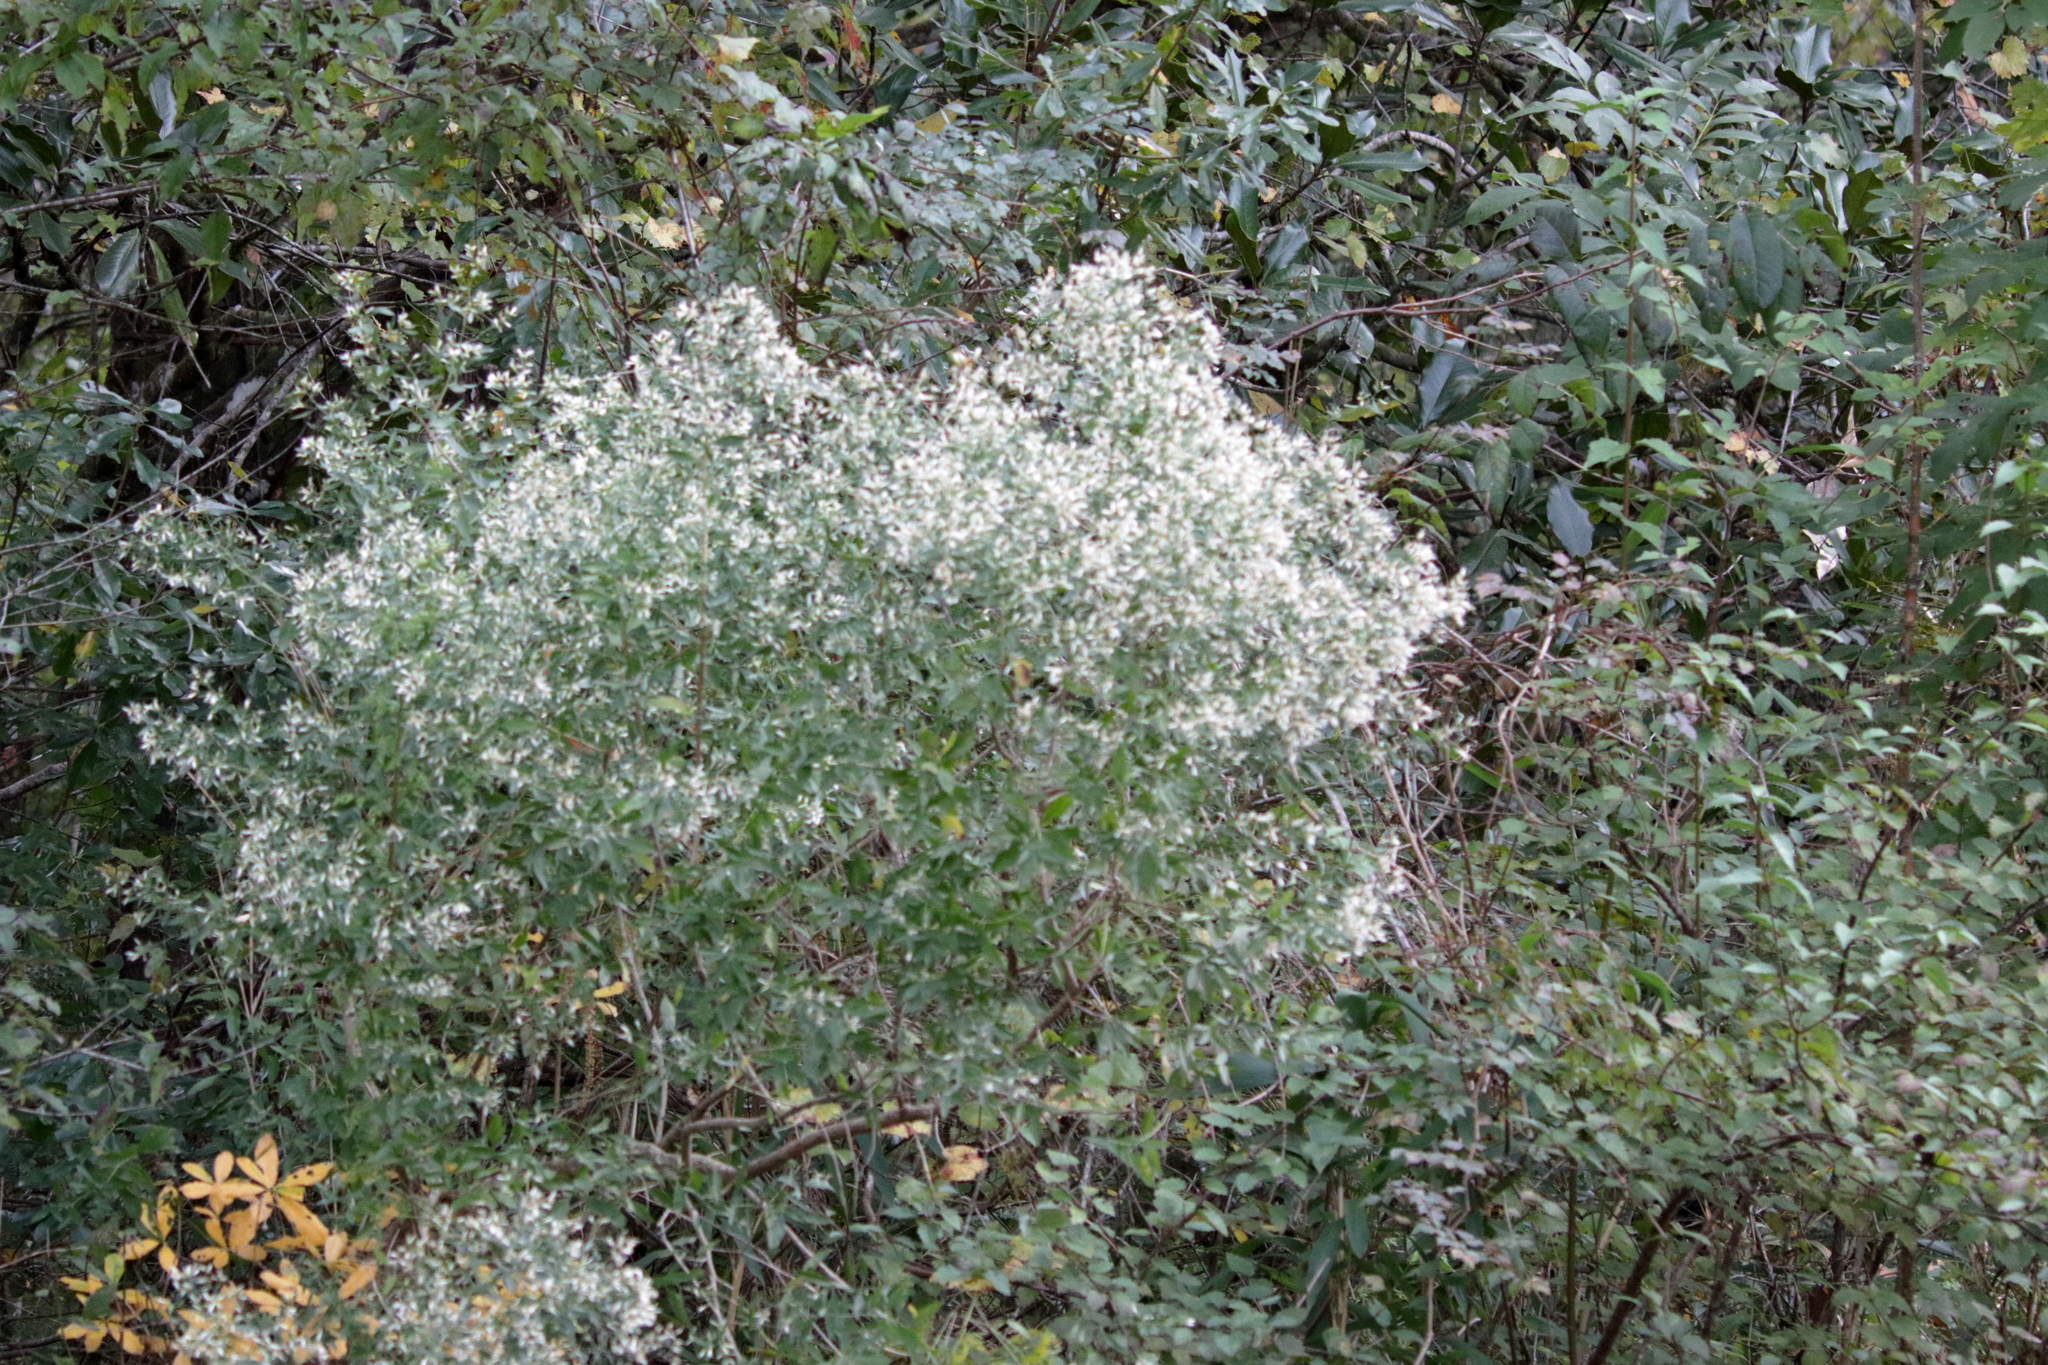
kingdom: Plantae
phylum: Tracheophyta
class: Magnoliopsida
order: Asterales
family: Asteraceae
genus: Baccharis
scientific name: Baccharis halimifolia
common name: Eastern baccharis
